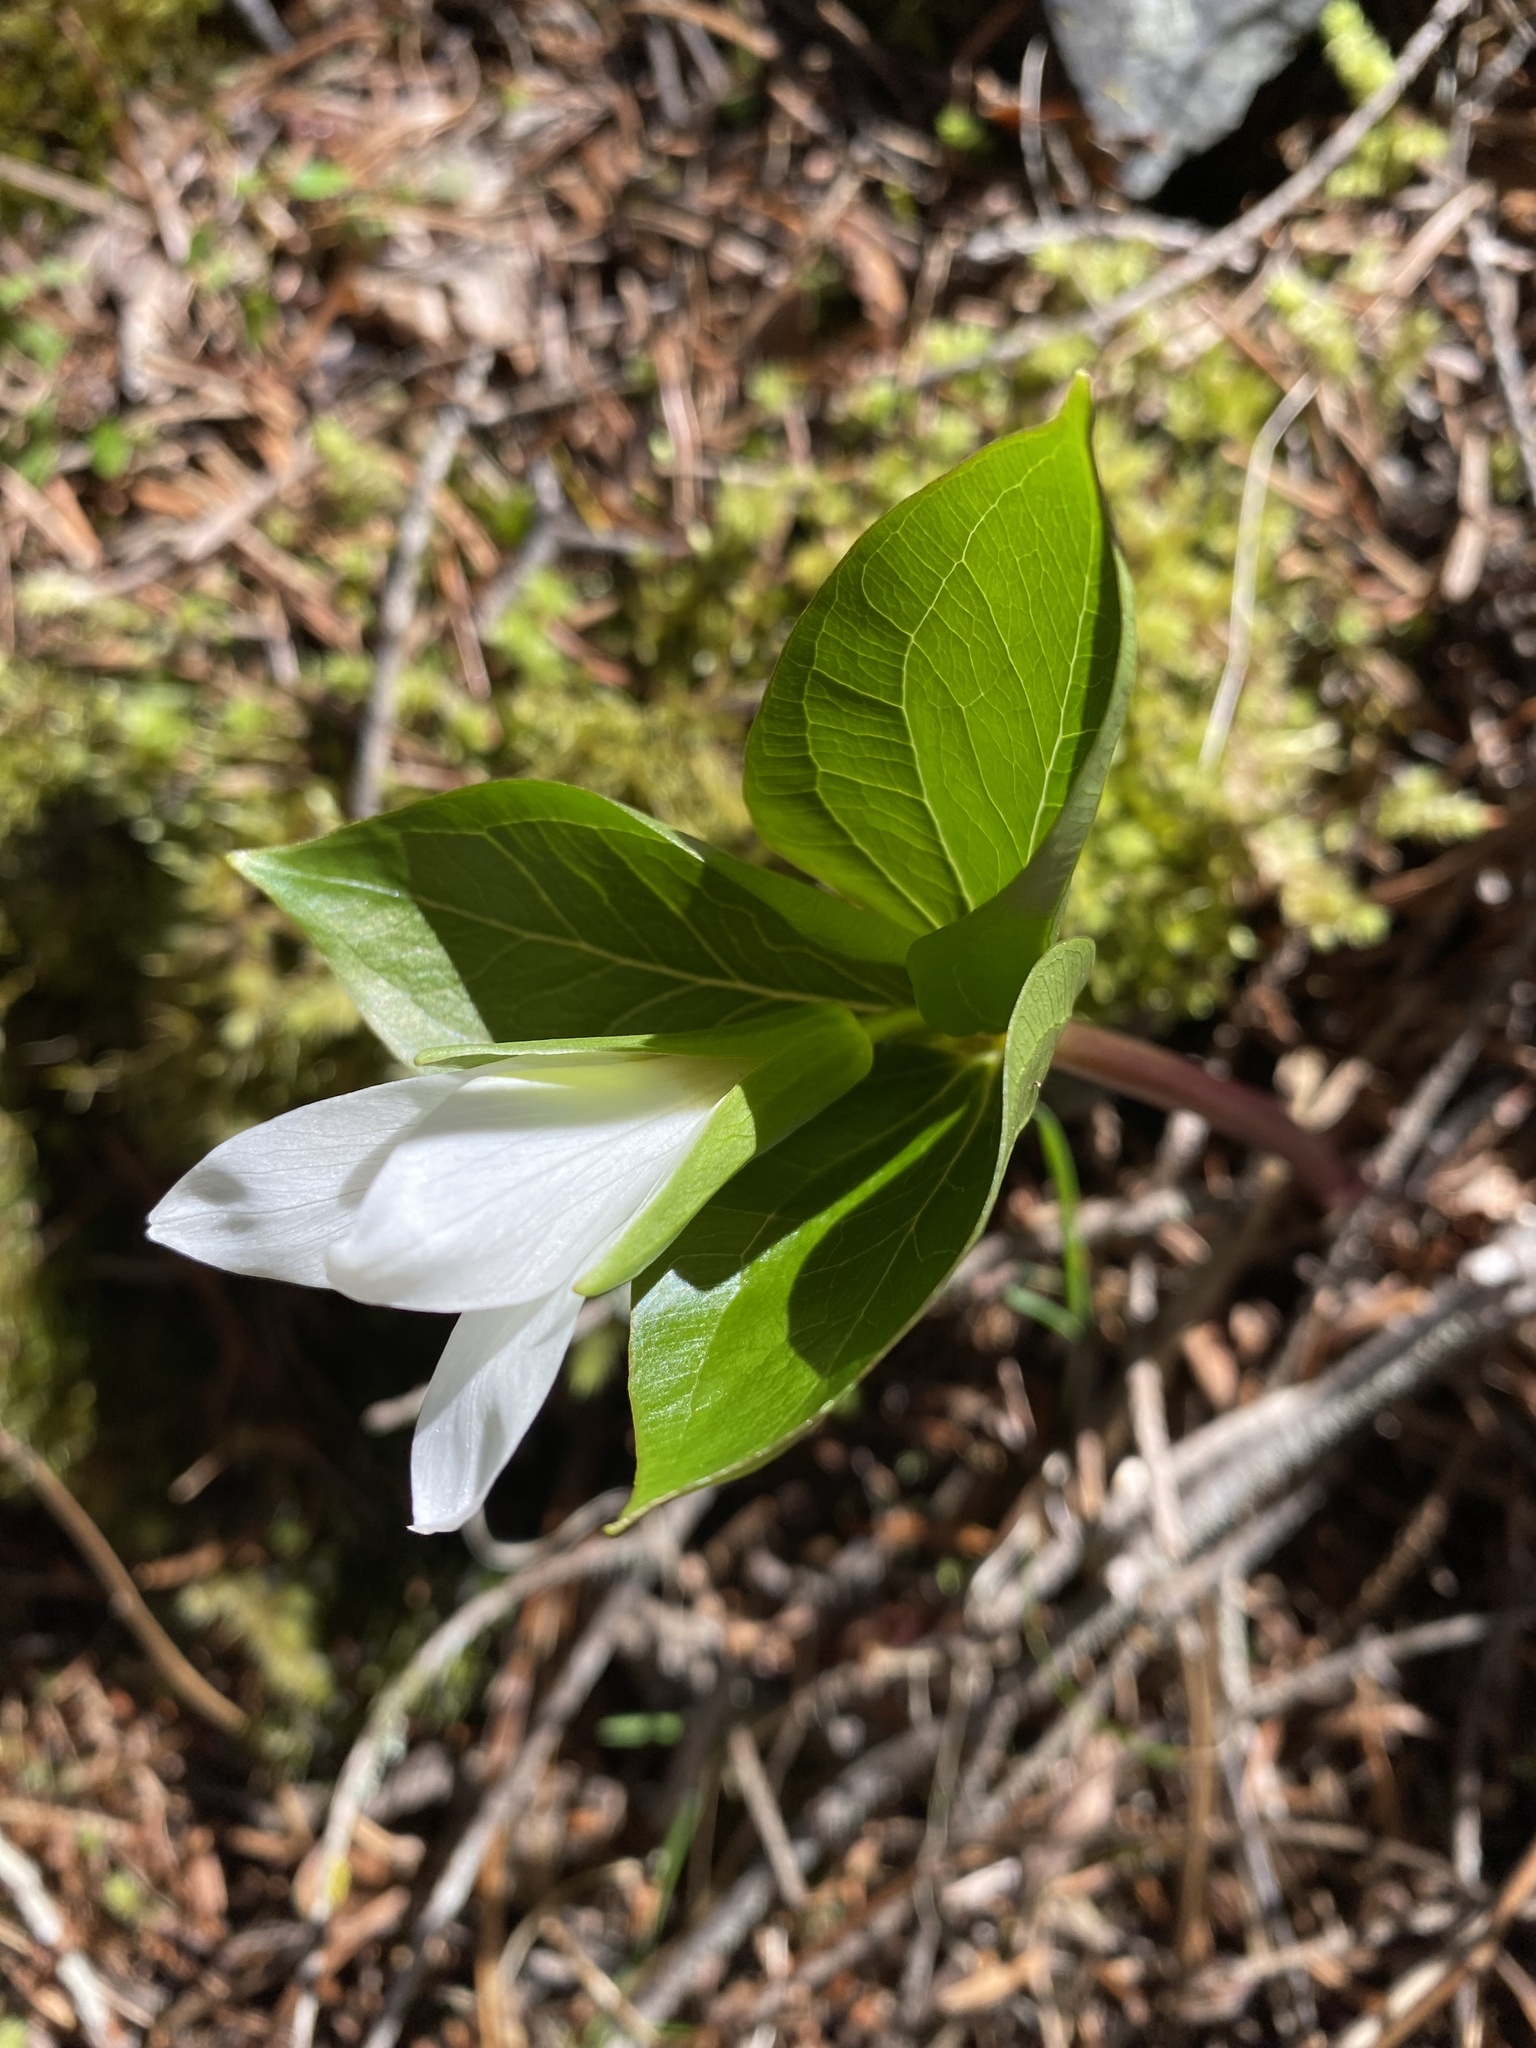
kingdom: Plantae
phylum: Tracheophyta
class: Liliopsida
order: Liliales
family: Melanthiaceae
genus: Trillium
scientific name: Trillium crassifolium
